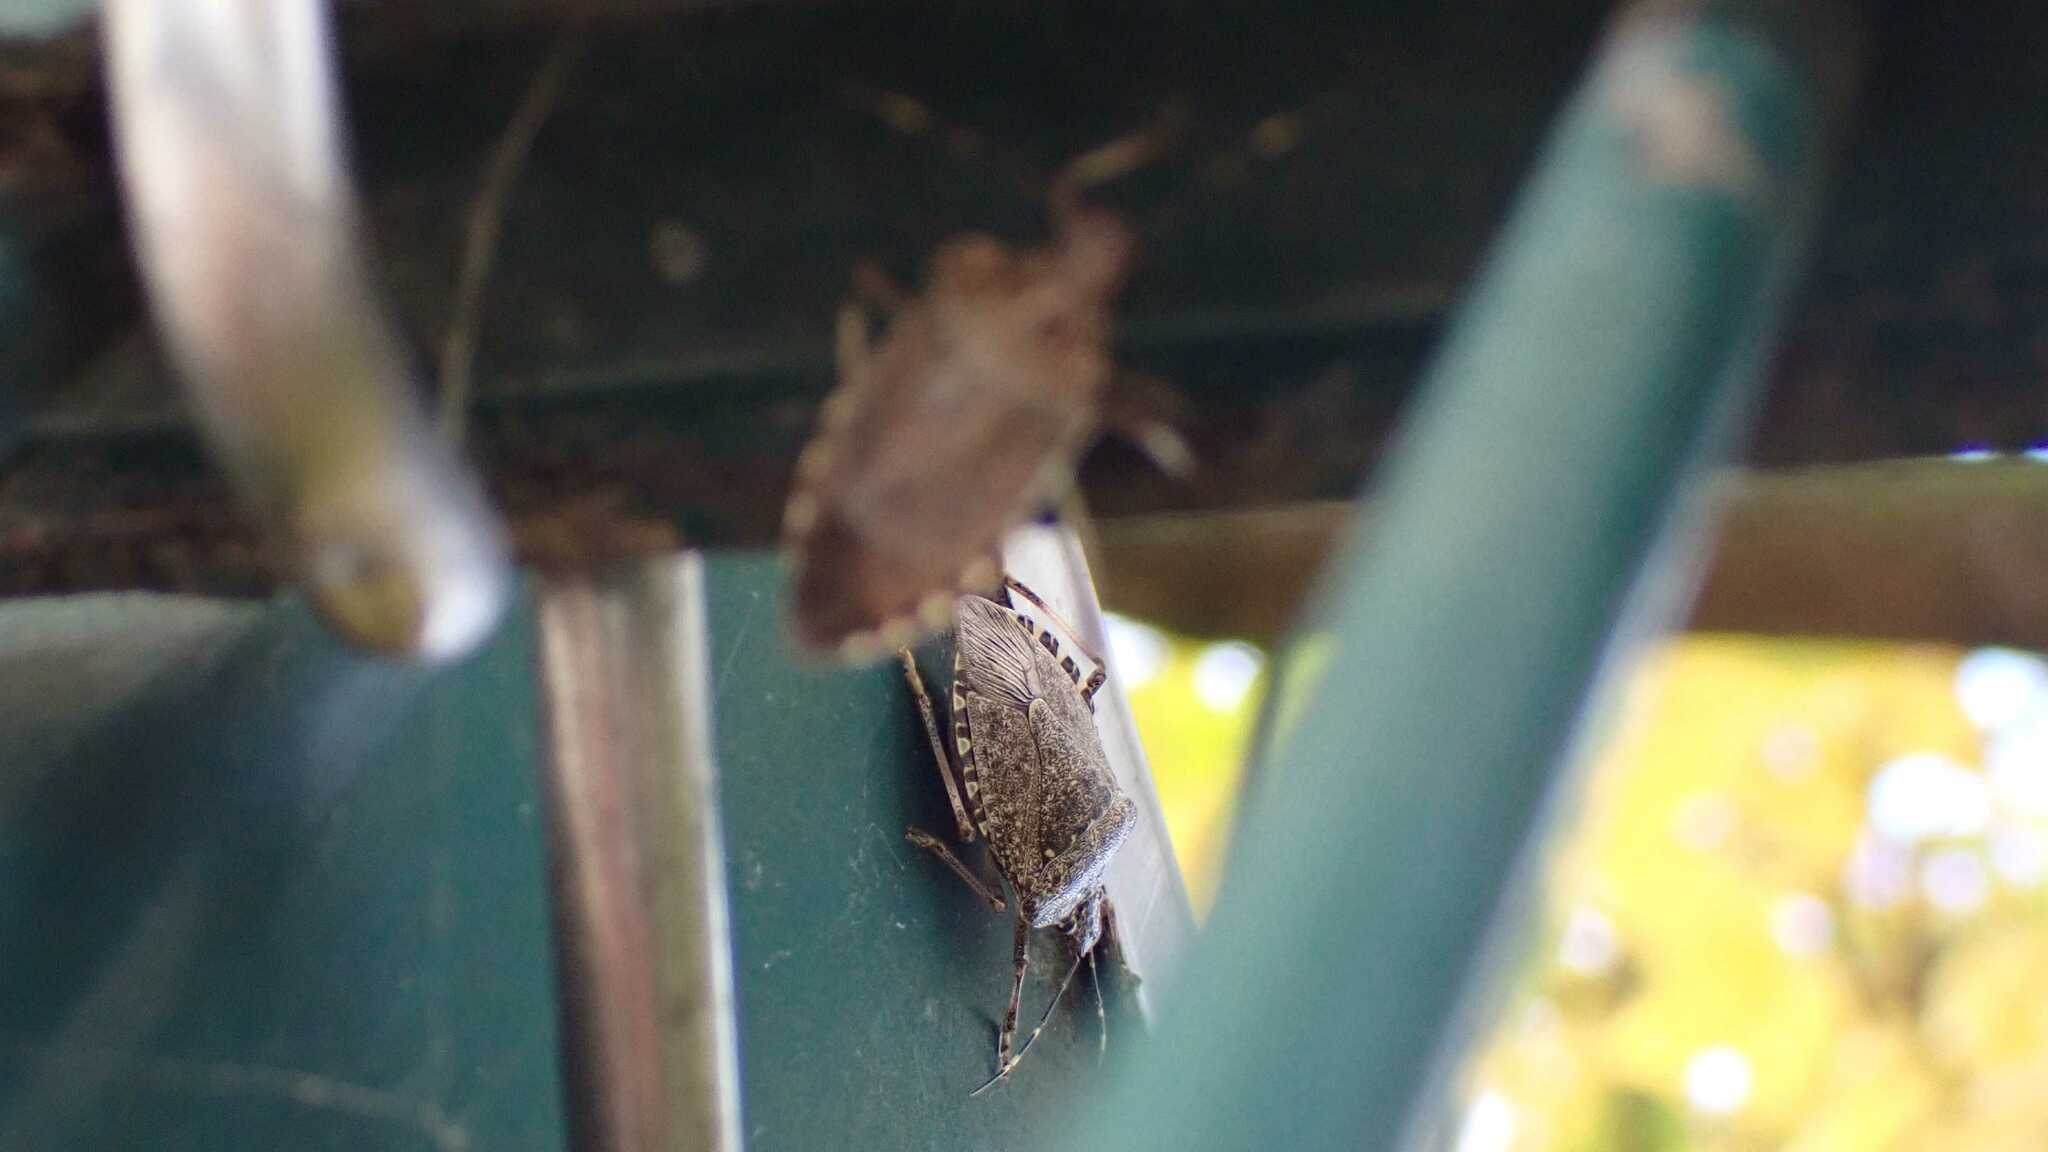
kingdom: Animalia
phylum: Arthropoda
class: Insecta
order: Hemiptera
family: Pentatomidae
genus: Halyomorpha
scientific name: Halyomorpha halys
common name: Brown marmorated stink bug
